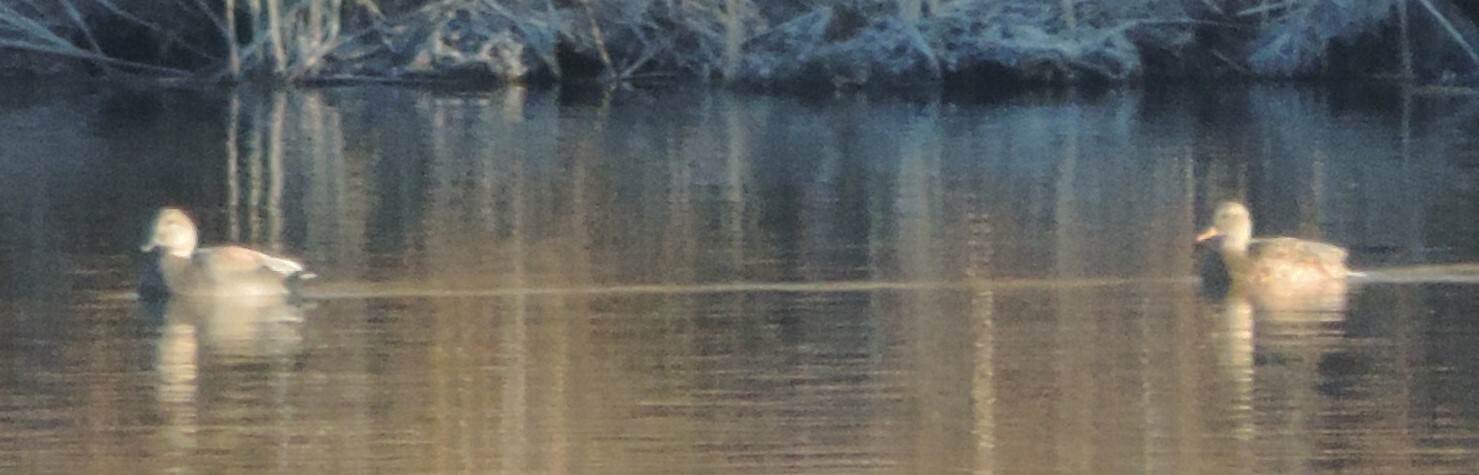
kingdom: Animalia
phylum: Chordata
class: Aves
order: Anseriformes
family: Anatidae
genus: Mareca
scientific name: Mareca strepera
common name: Gadwall
